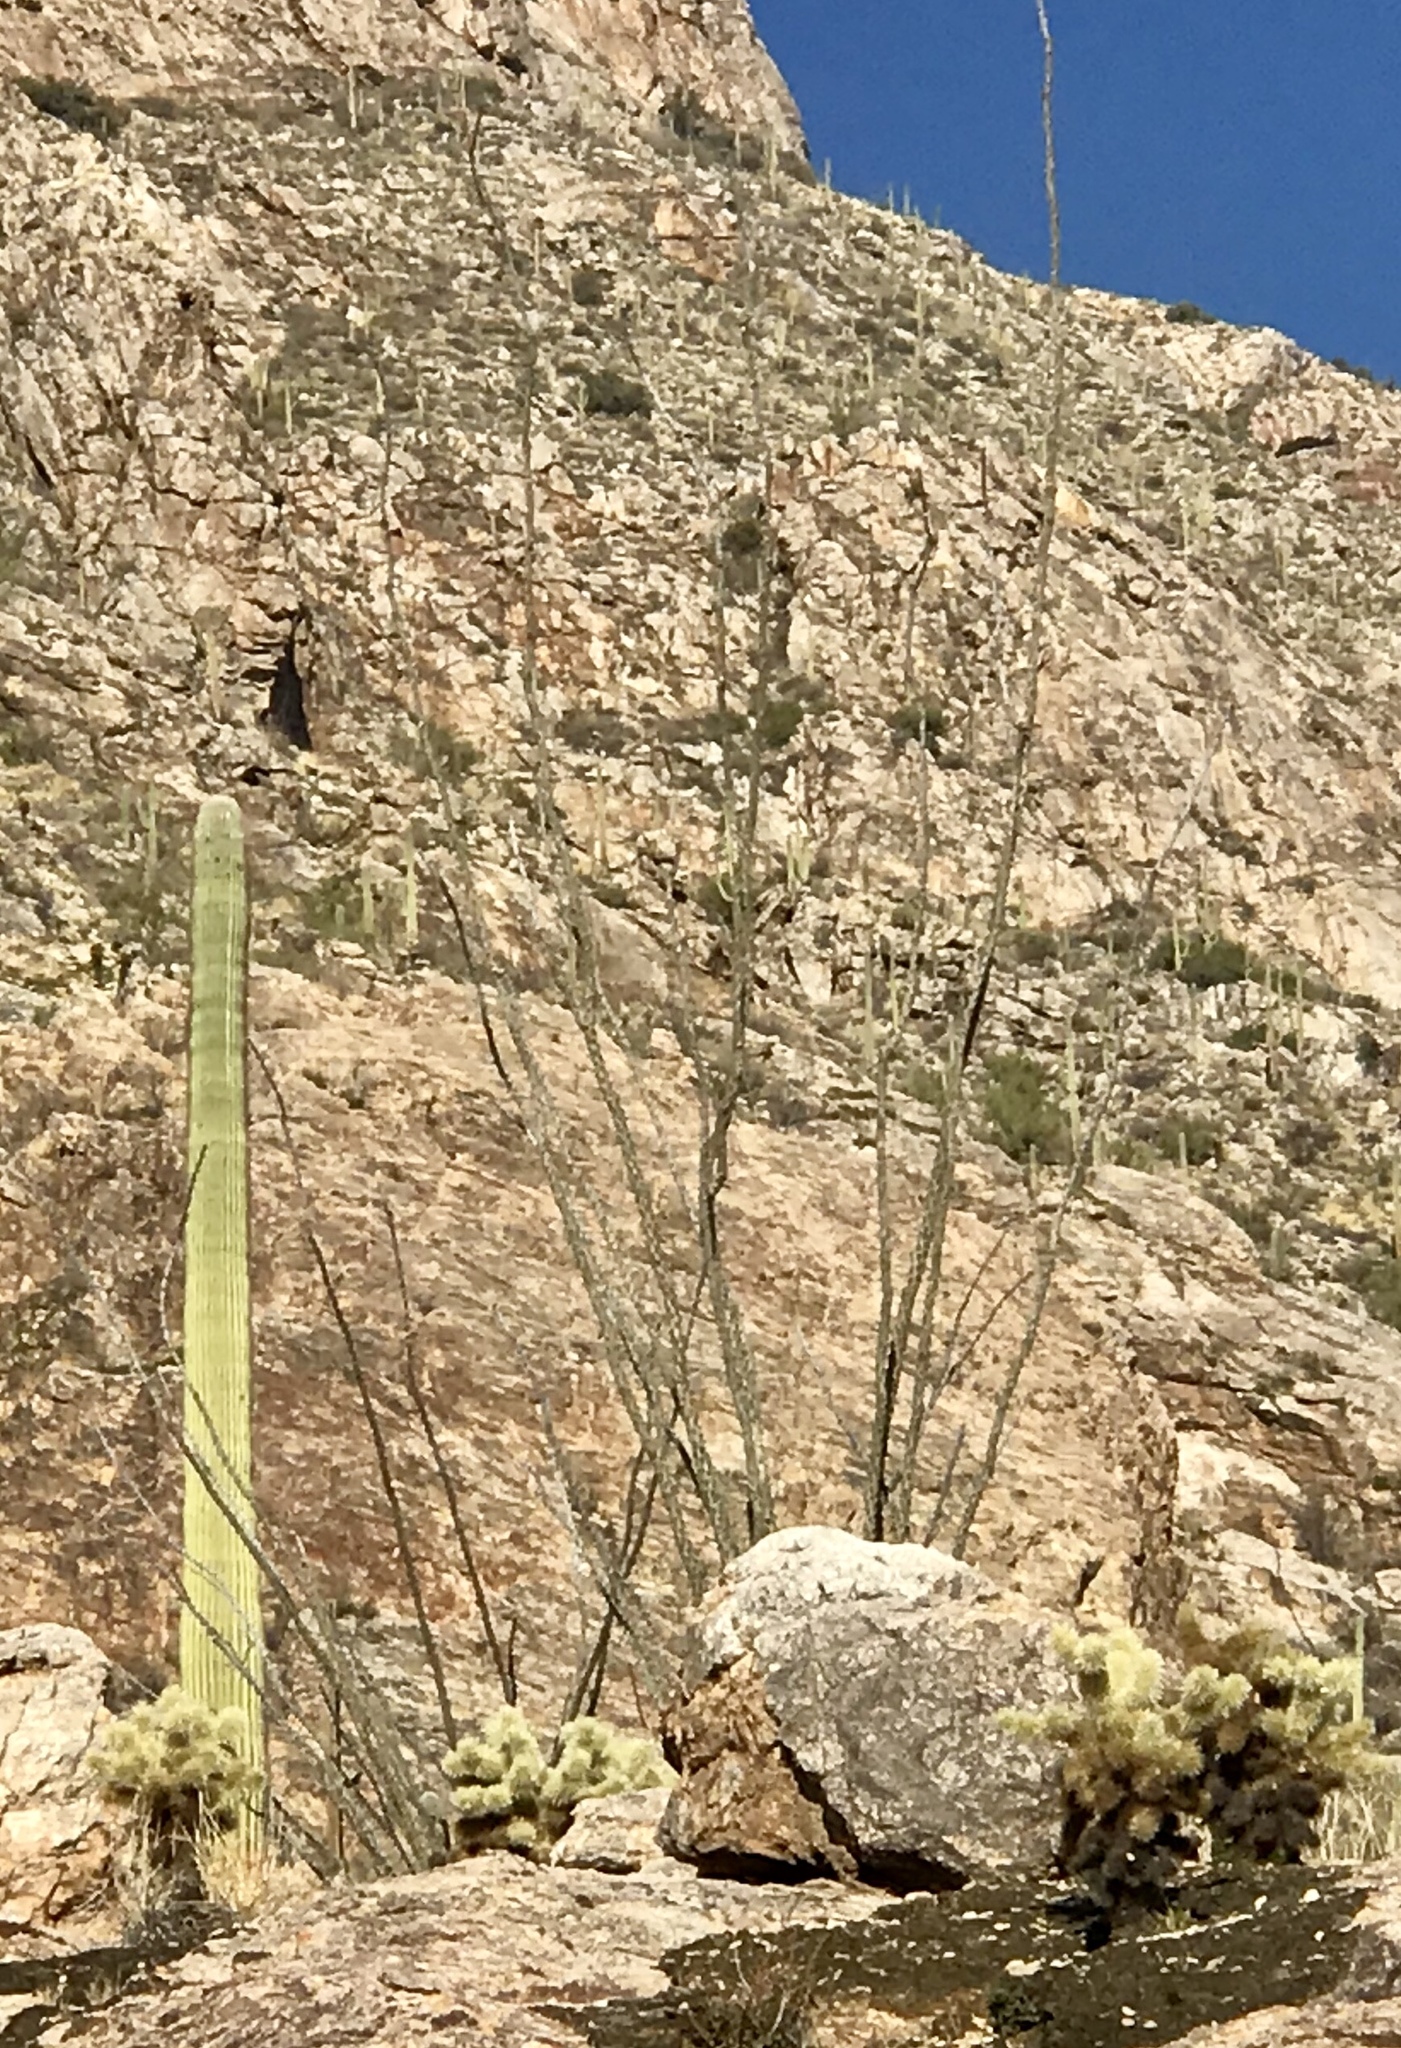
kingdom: Plantae
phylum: Tracheophyta
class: Magnoliopsida
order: Ericales
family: Fouquieriaceae
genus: Fouquieria
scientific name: Fouquieria splendens
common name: Vine-cactus
